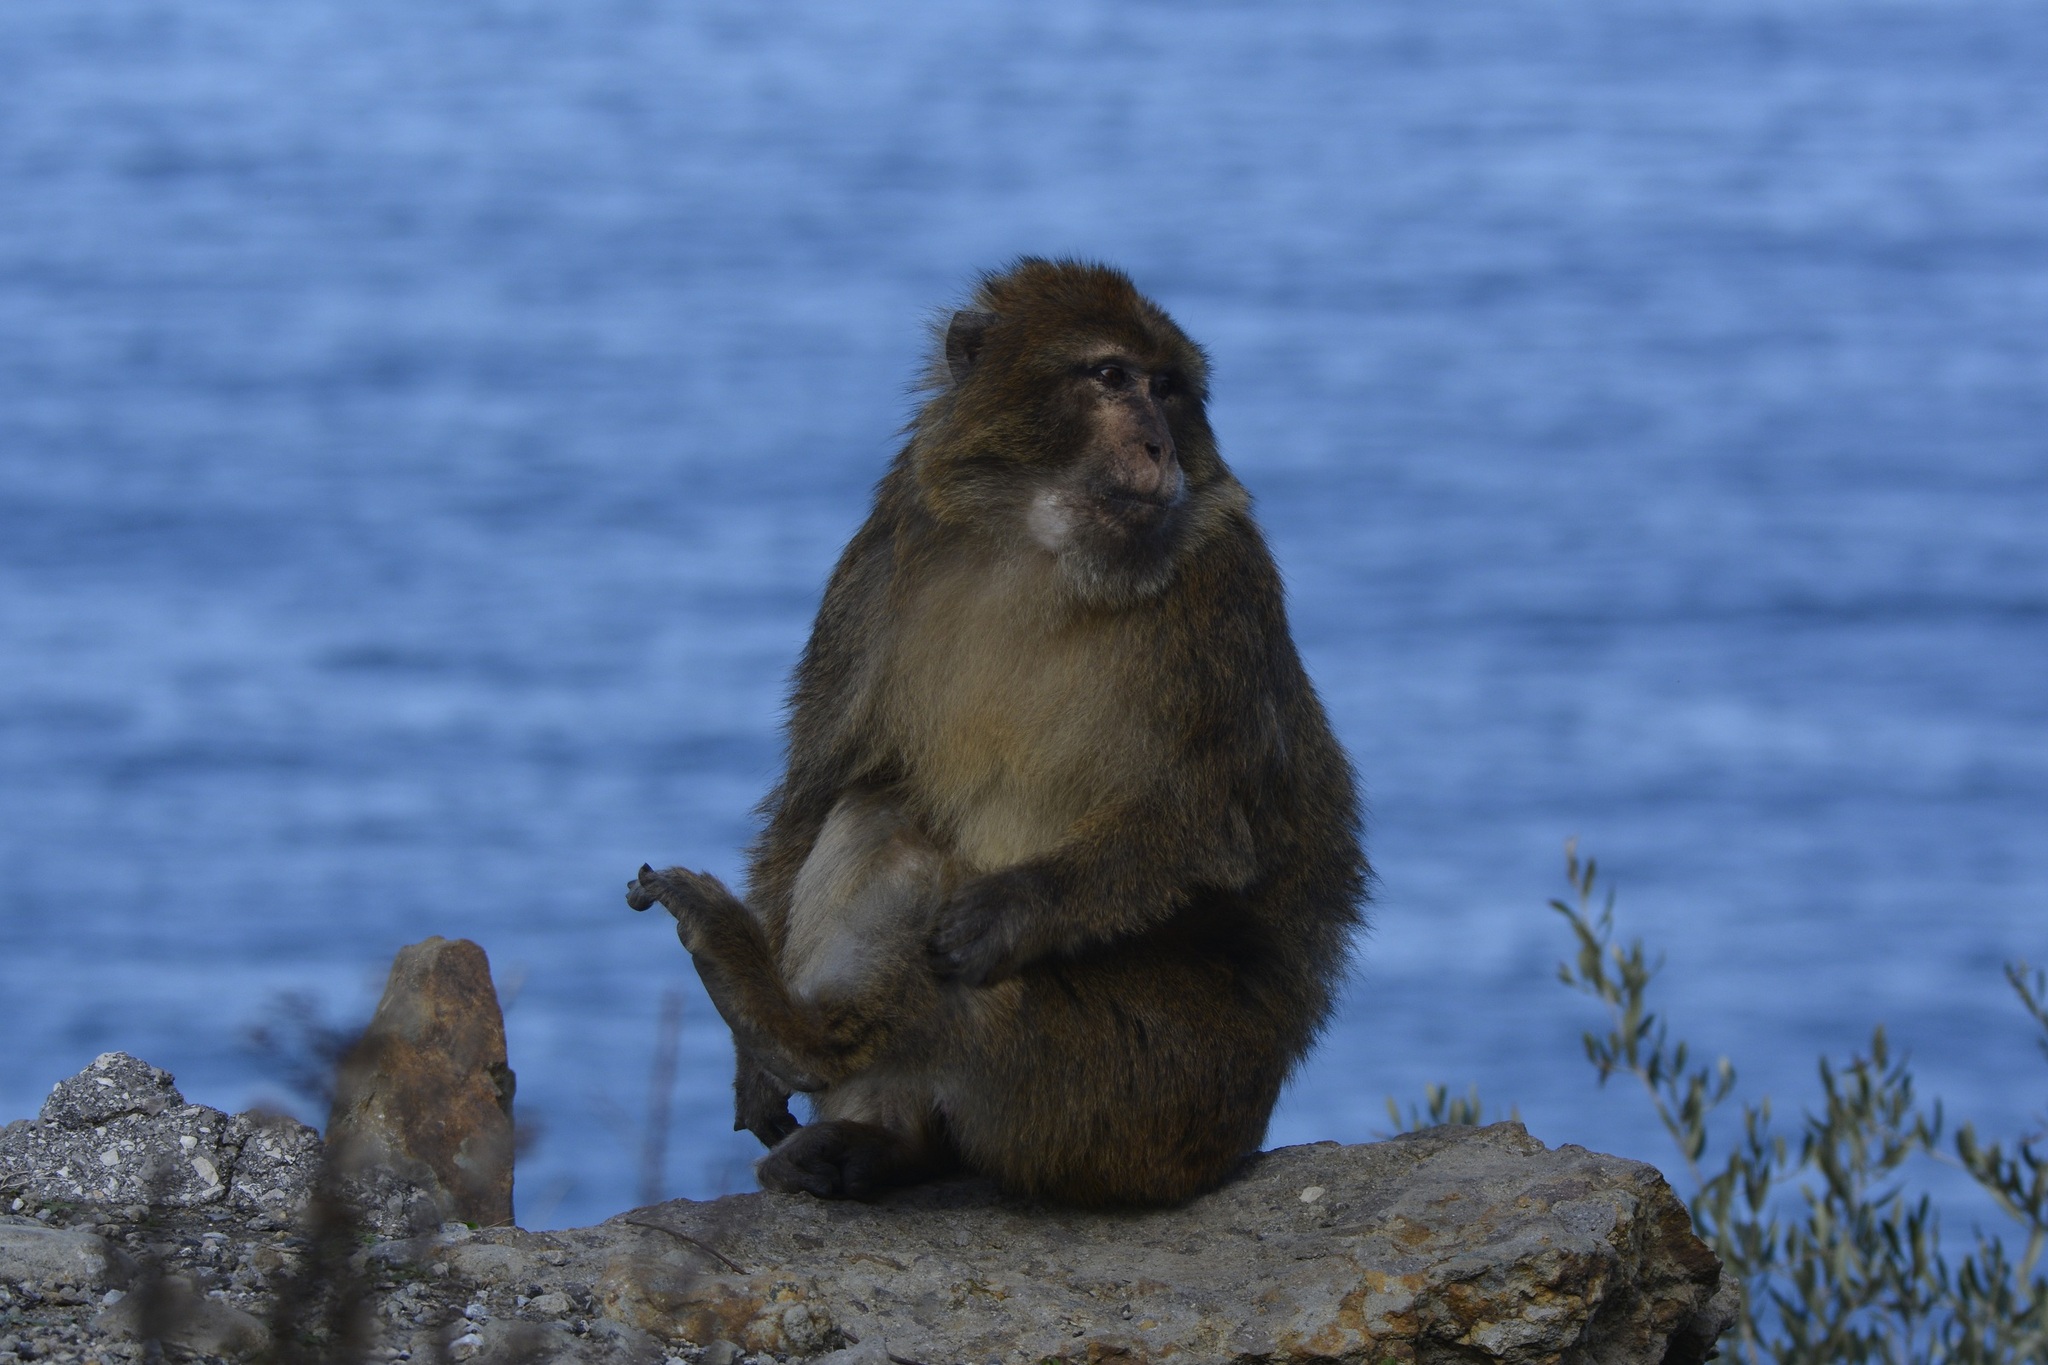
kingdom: Animalia
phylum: Chordata
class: Mammalia
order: Primates
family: Cercopithecidae
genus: Macaca
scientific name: Macaca sylvanus
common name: Barbary macaque
